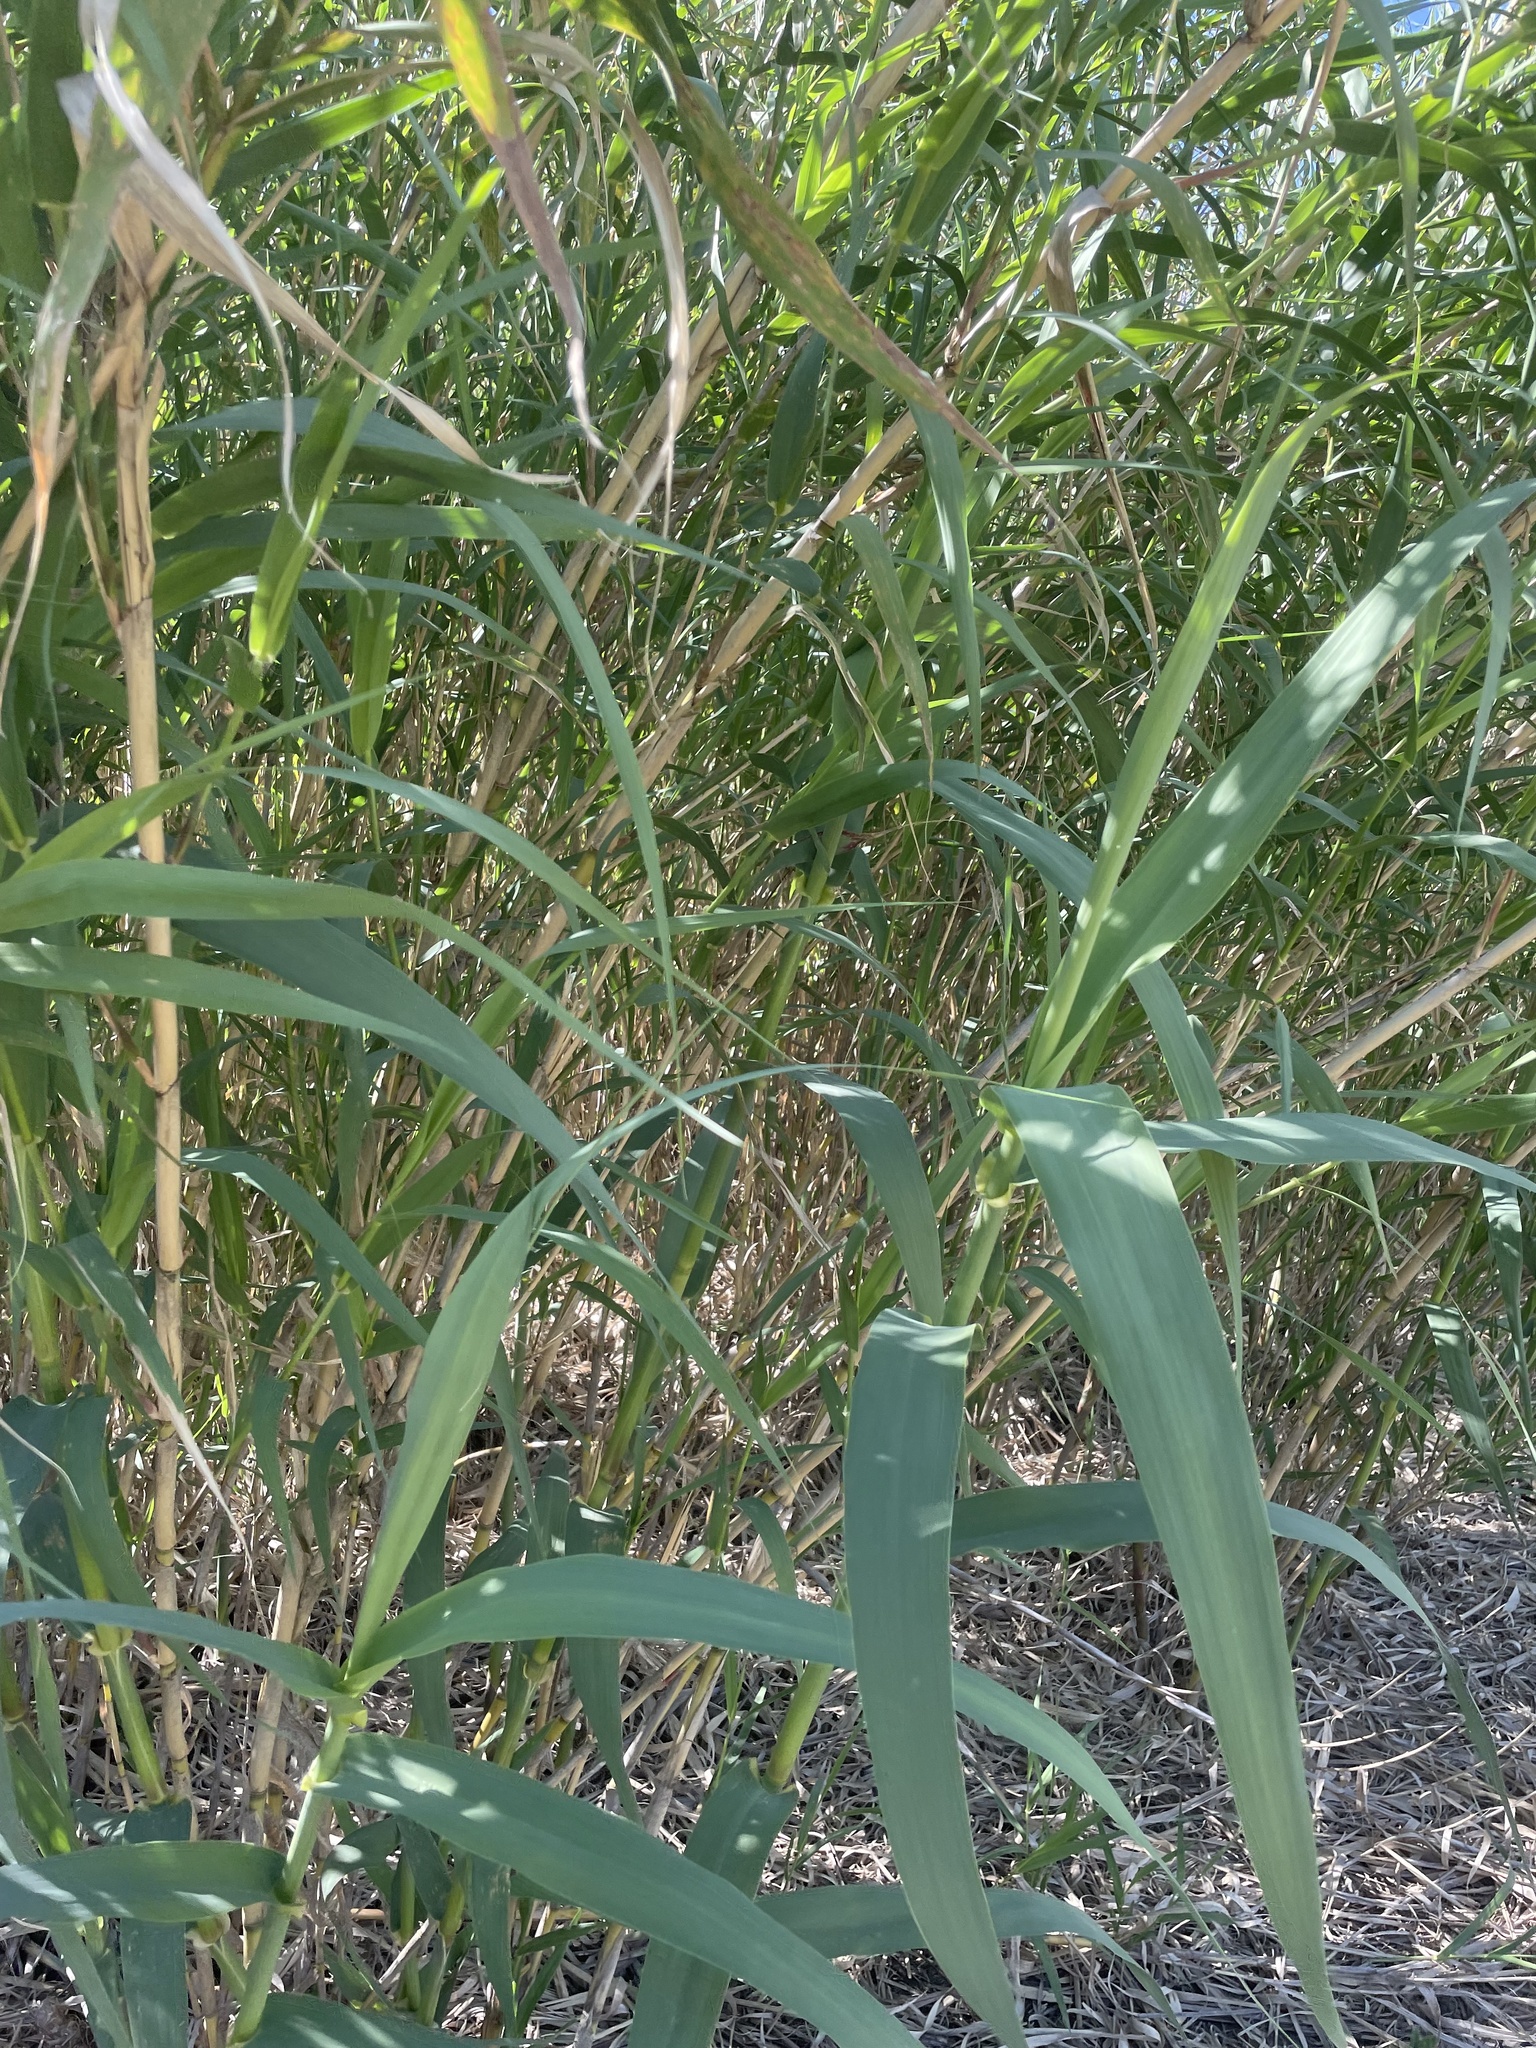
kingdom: Plantae
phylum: Tracheophyta
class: Liliopsida
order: Poales
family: Poaceae
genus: Arundo
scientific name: Arundo donax
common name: Giant reed
